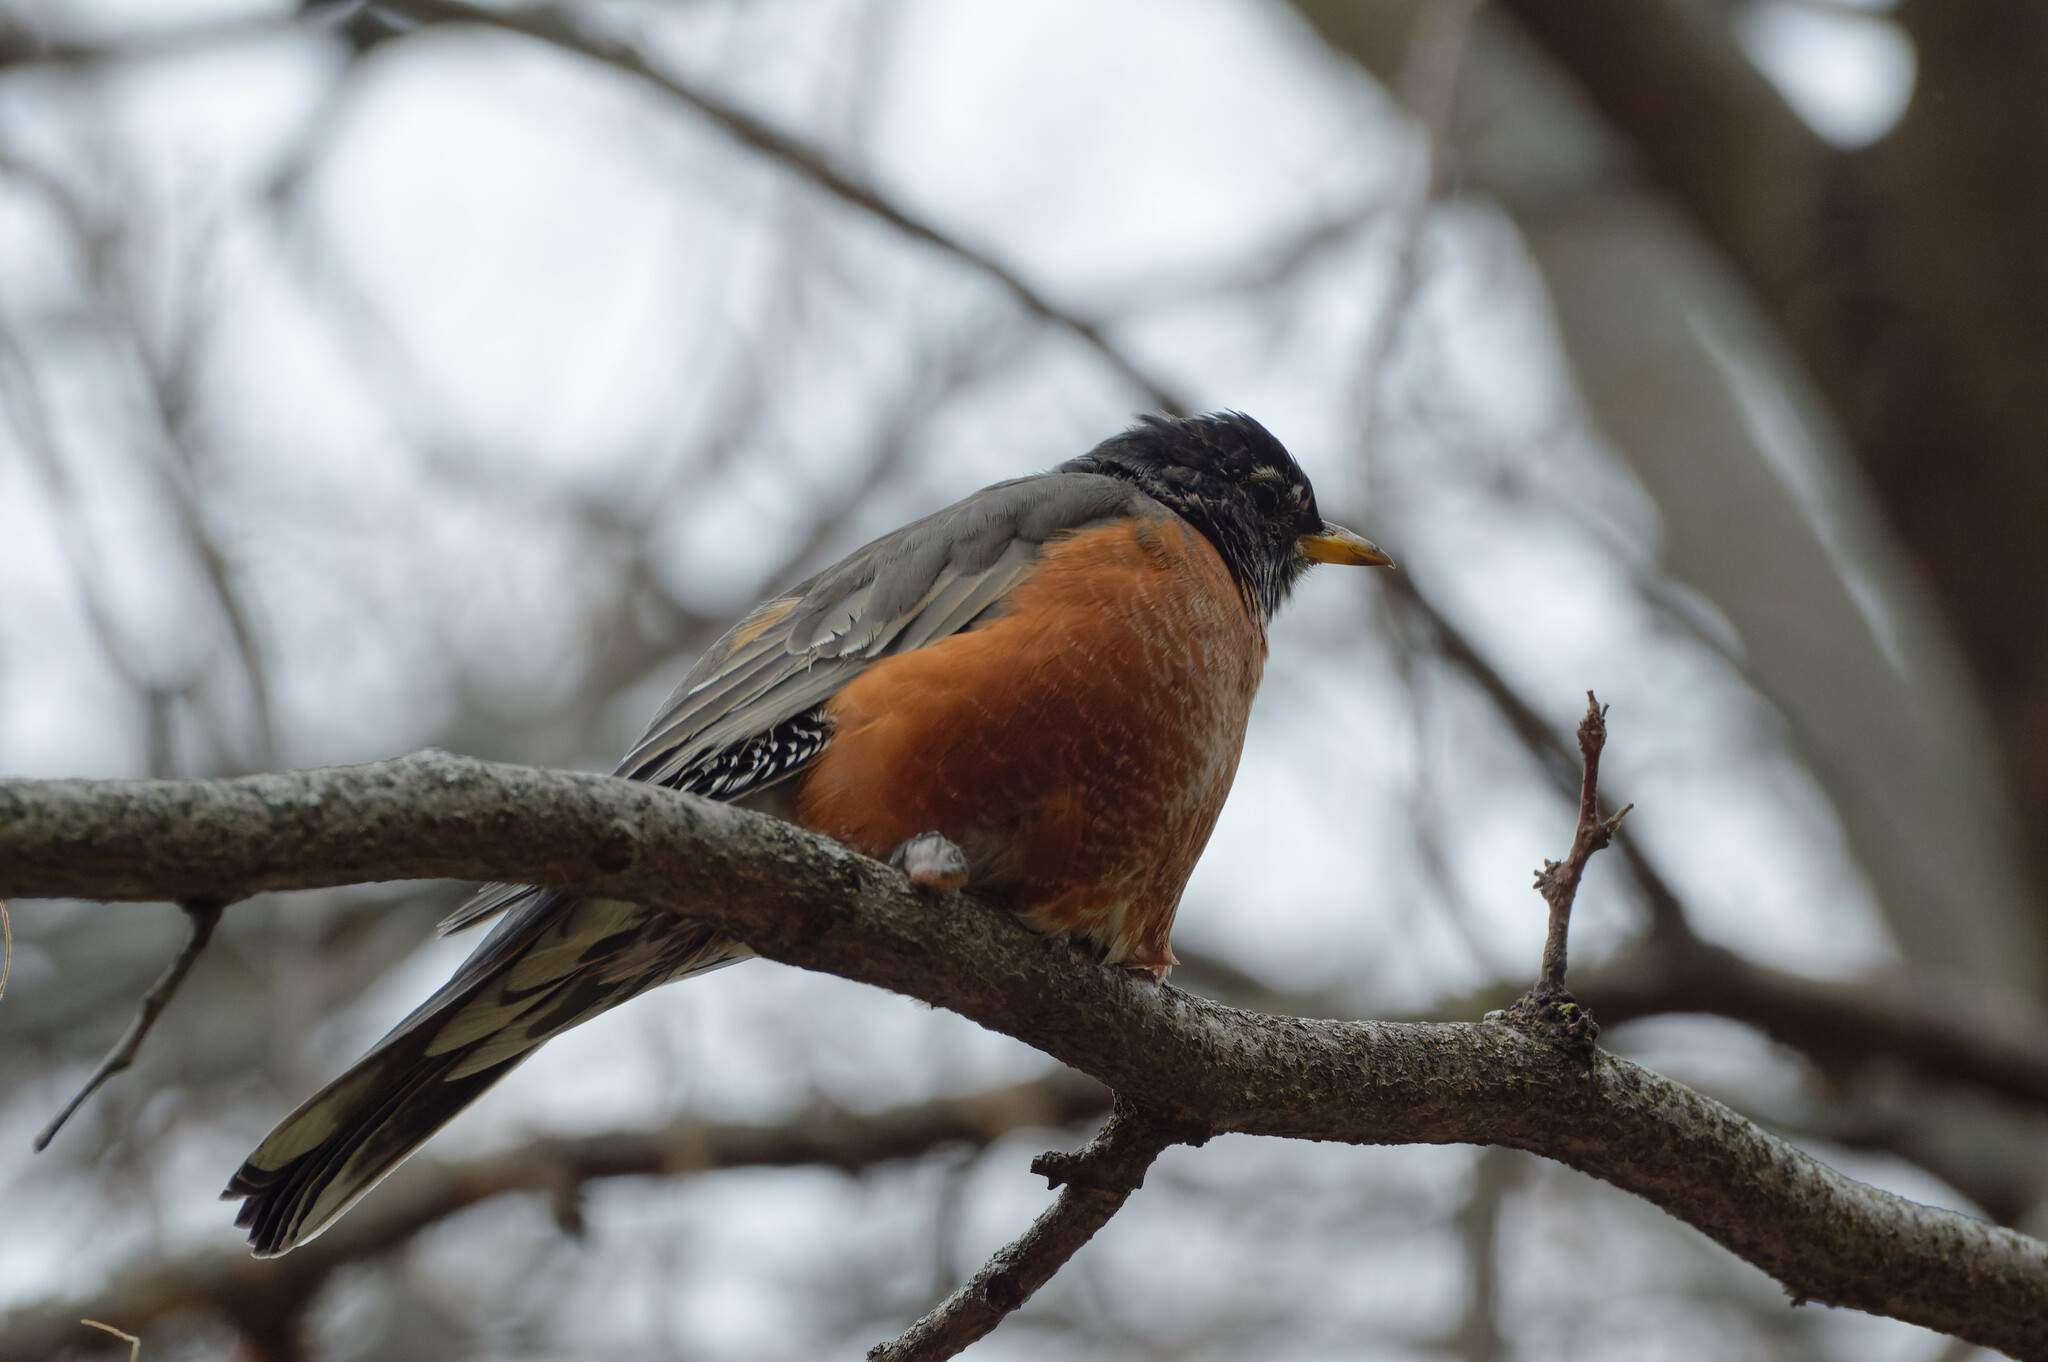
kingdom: Animalia
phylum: Chordata
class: Aves
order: Passeriformes
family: Turdidae
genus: Turdus
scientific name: Turdus migratorius
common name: American robin
